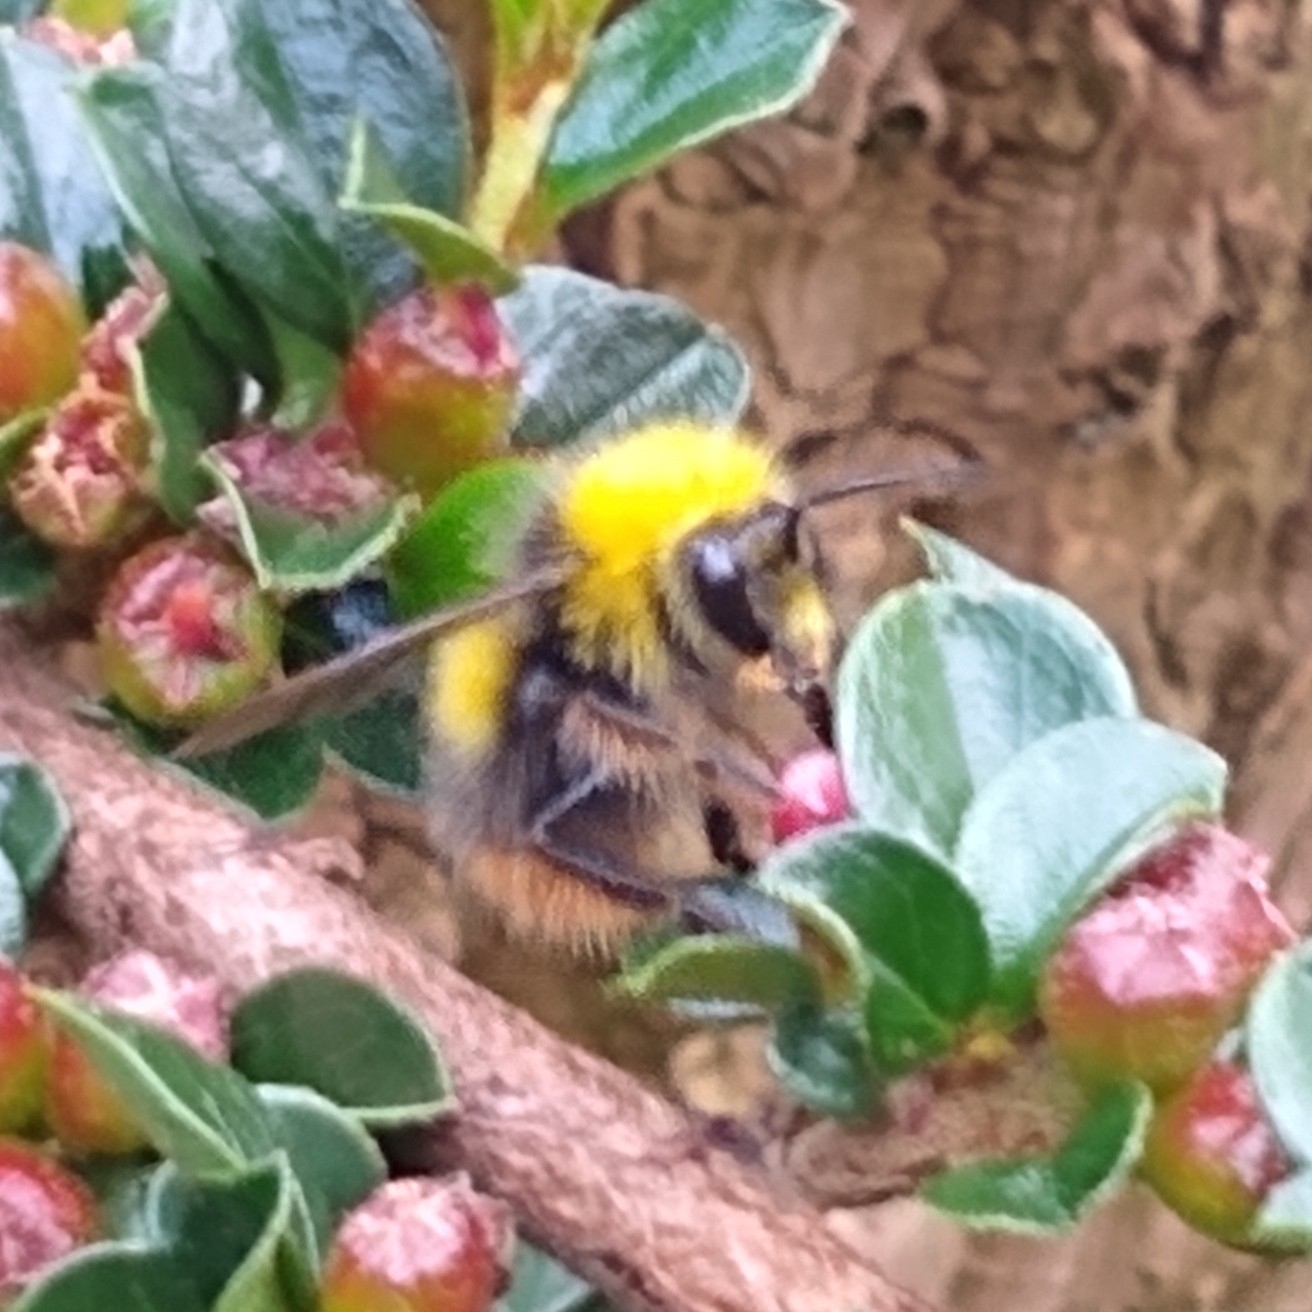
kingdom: Animalia
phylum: Arthropoda
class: Insecta
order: Hymenoptera
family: Apidae
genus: Bombus
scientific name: Bombus pratorum
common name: Early humble-bee
